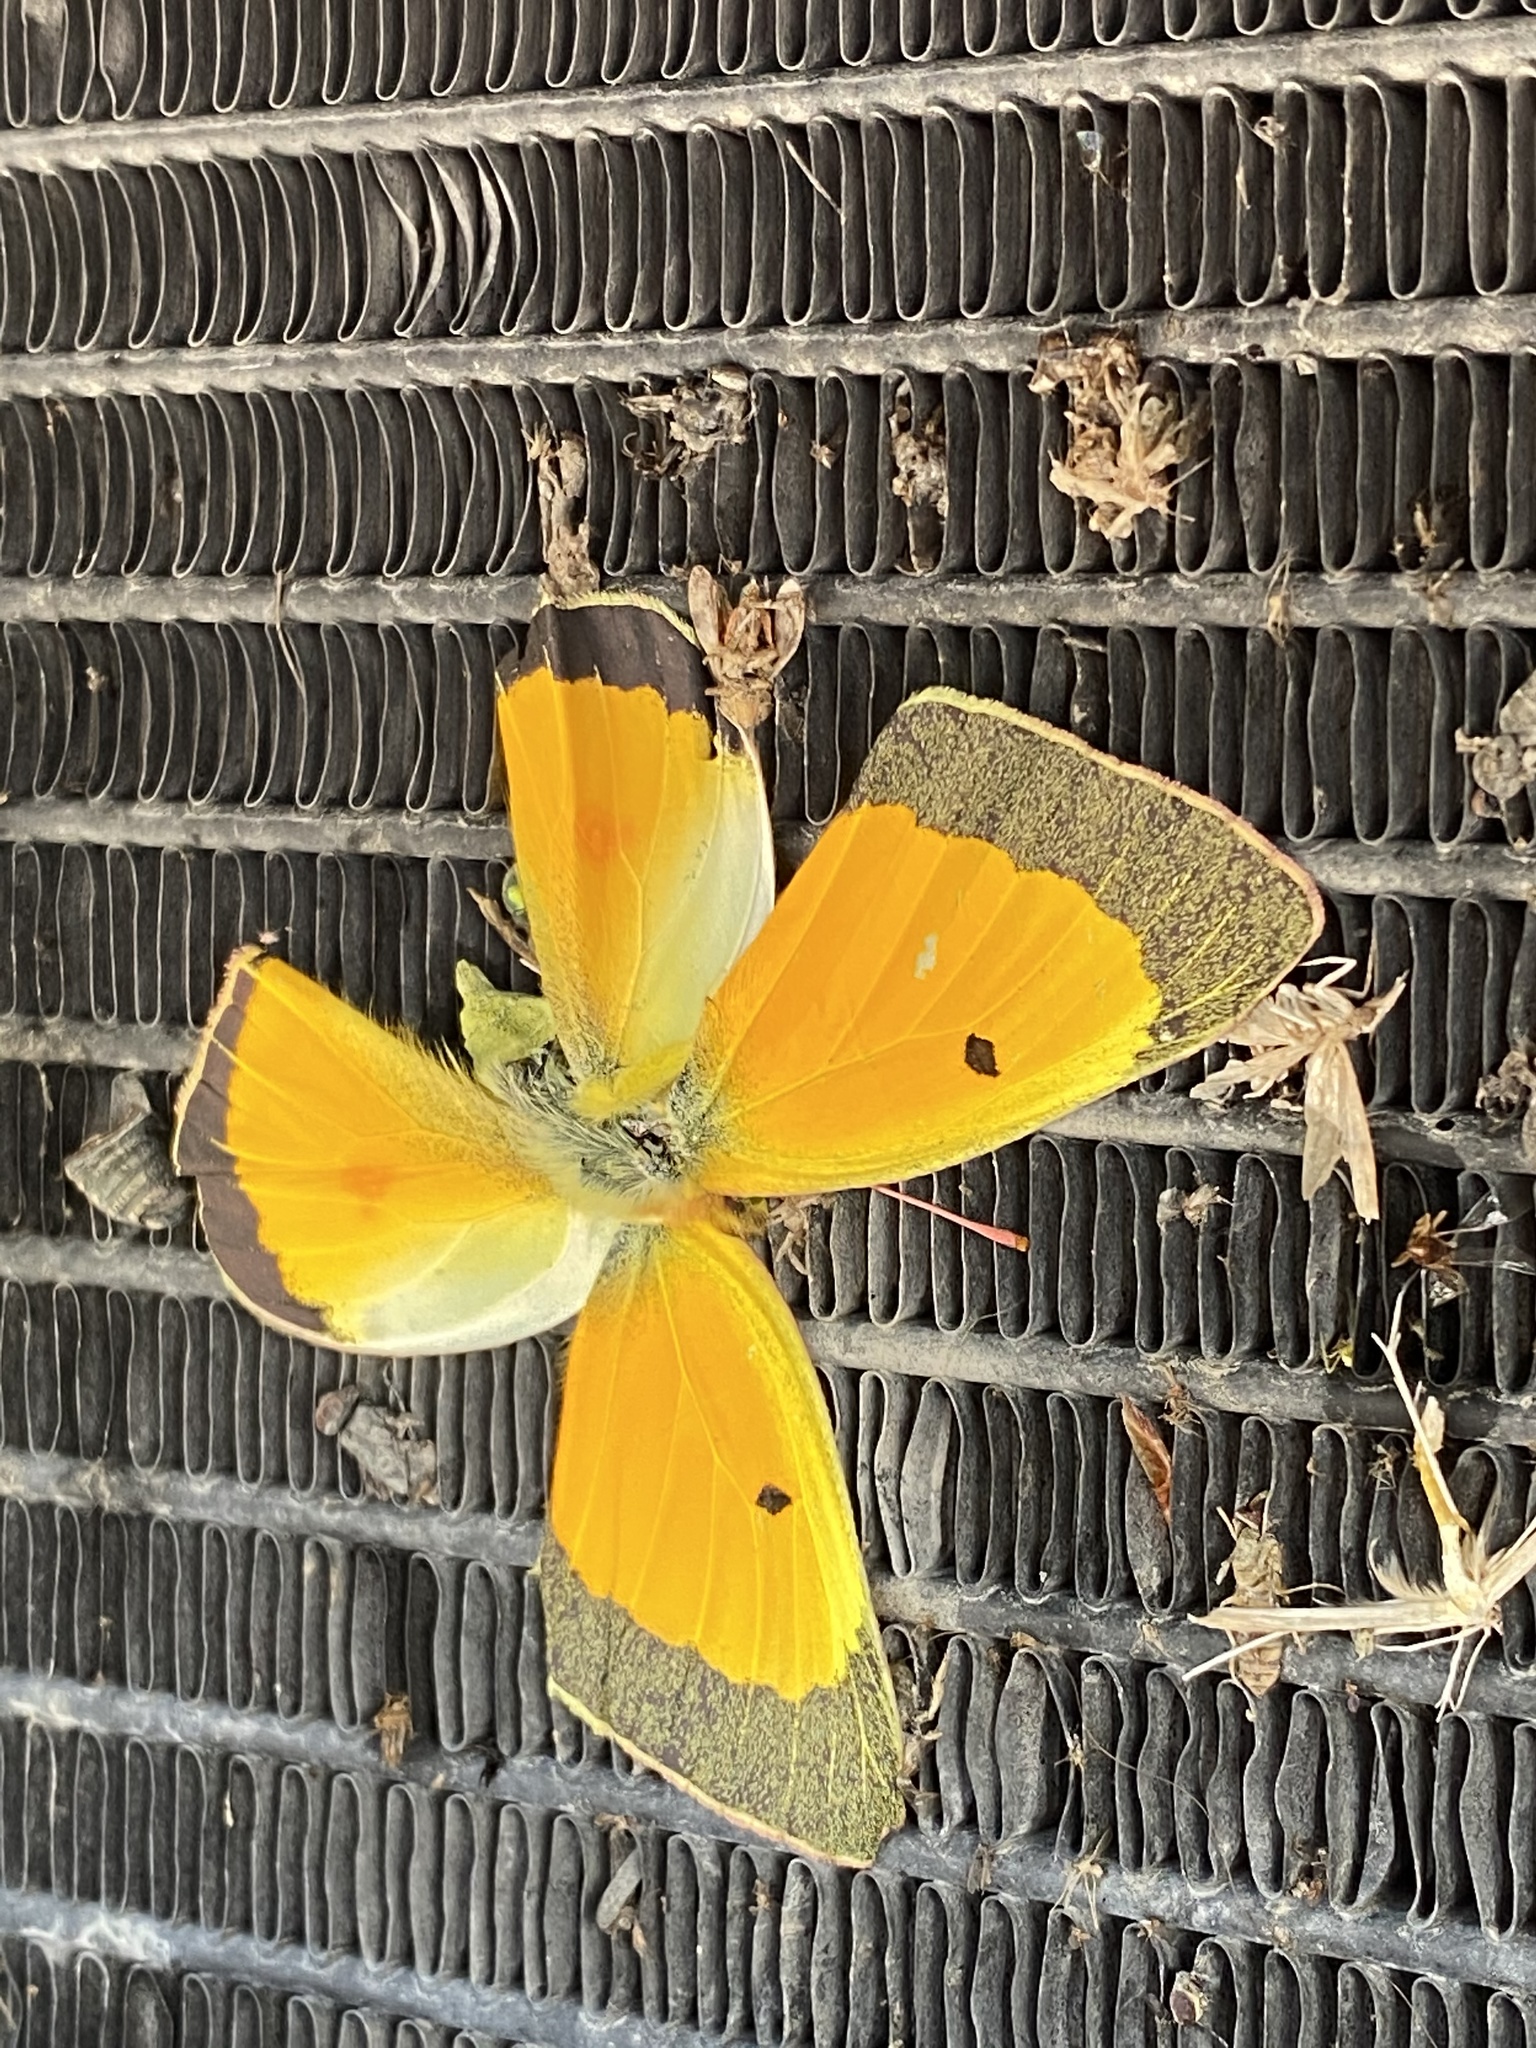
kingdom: Animalia
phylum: Arthropoda
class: Insecta
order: Lepidoptera
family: Pieridae
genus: Colias
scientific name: Colias eurytheme
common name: Alfalfa butterfly
